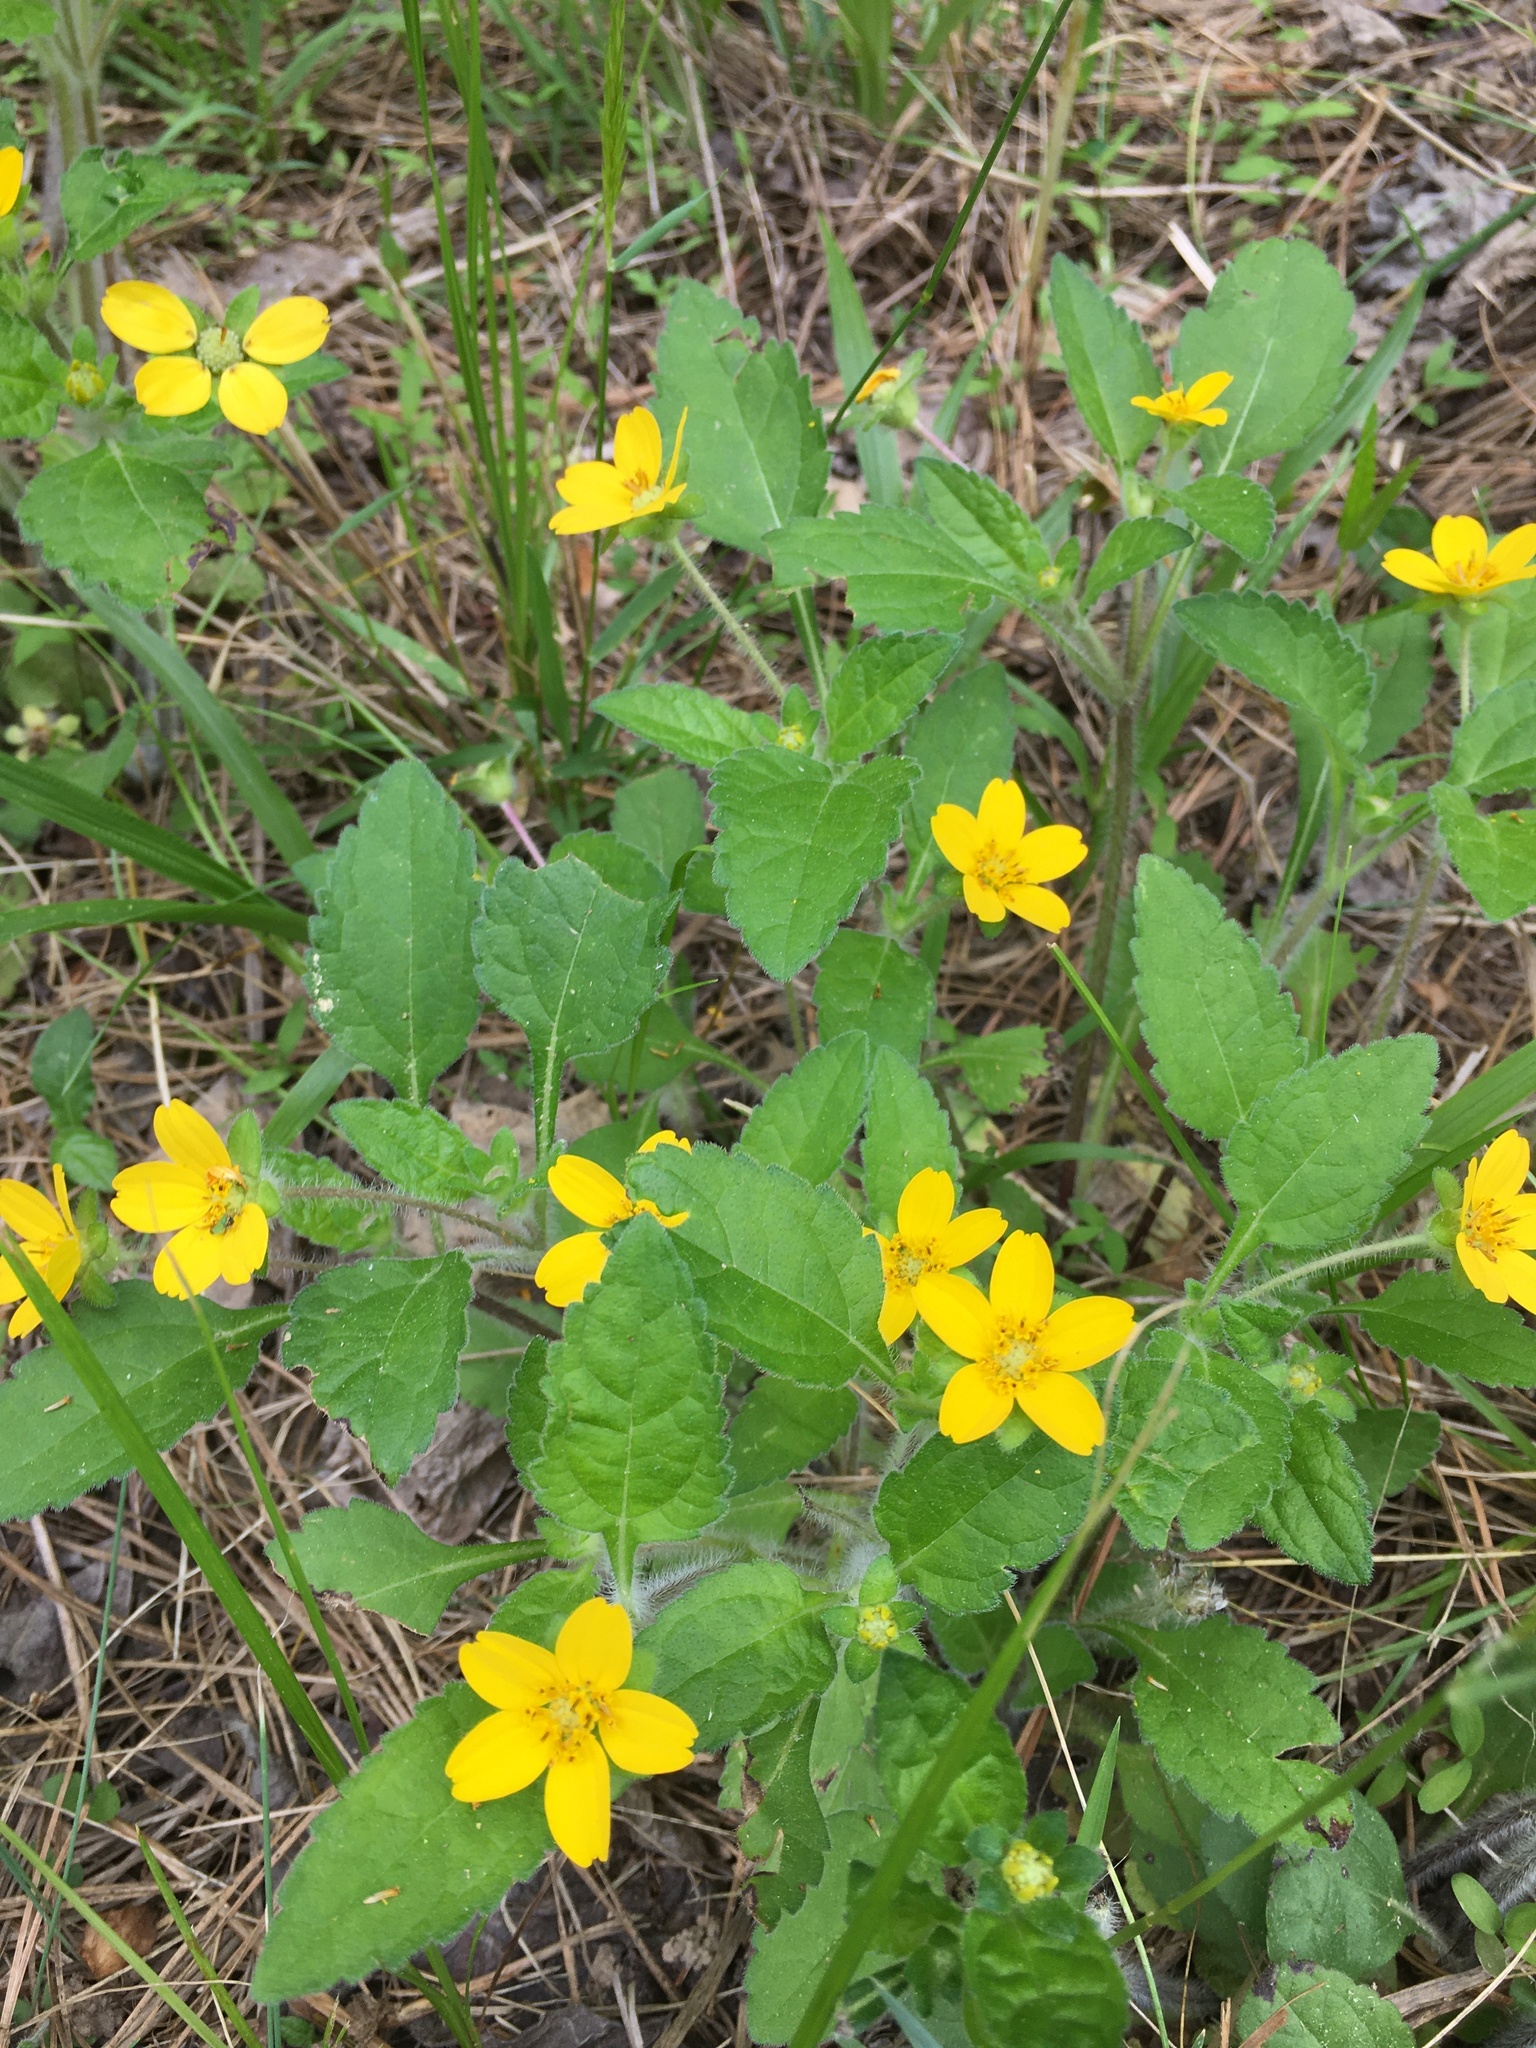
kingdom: Plantae
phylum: Tracheophyta
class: Magnoliopsida
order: Asterales
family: Asteraceae
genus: Chrysogonum
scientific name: Chrysogonum virginianum
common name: Golden-knee
